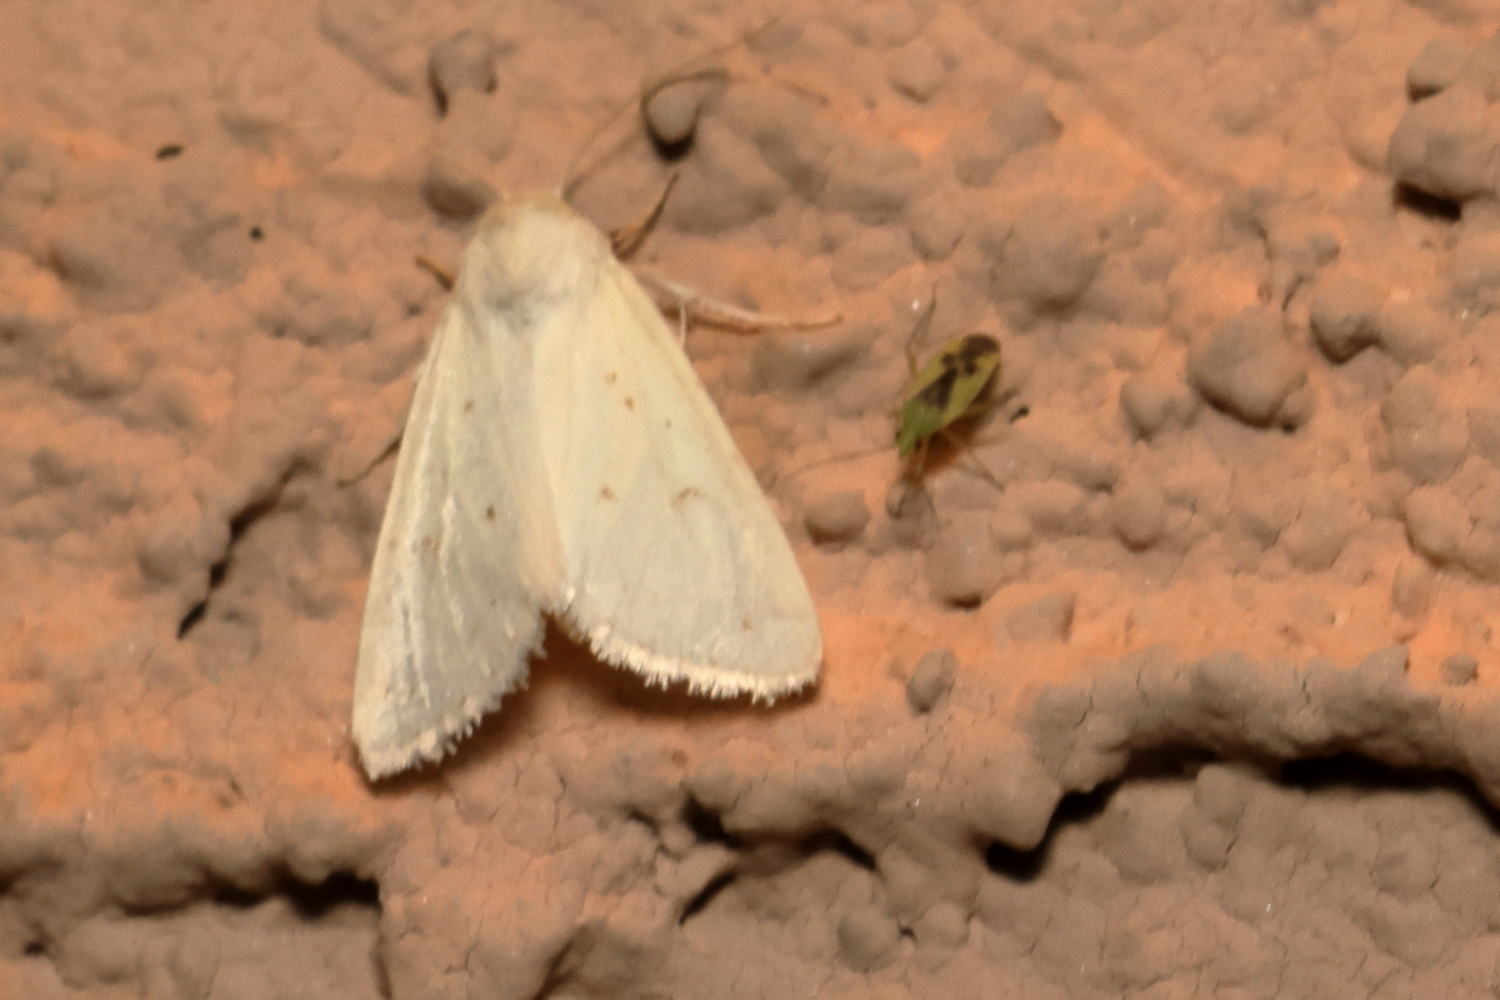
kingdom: Animalia
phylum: Arthropoda
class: Insecta
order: Lepidoptera
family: Noctuidae
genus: Schinia
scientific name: Schinia luxa
